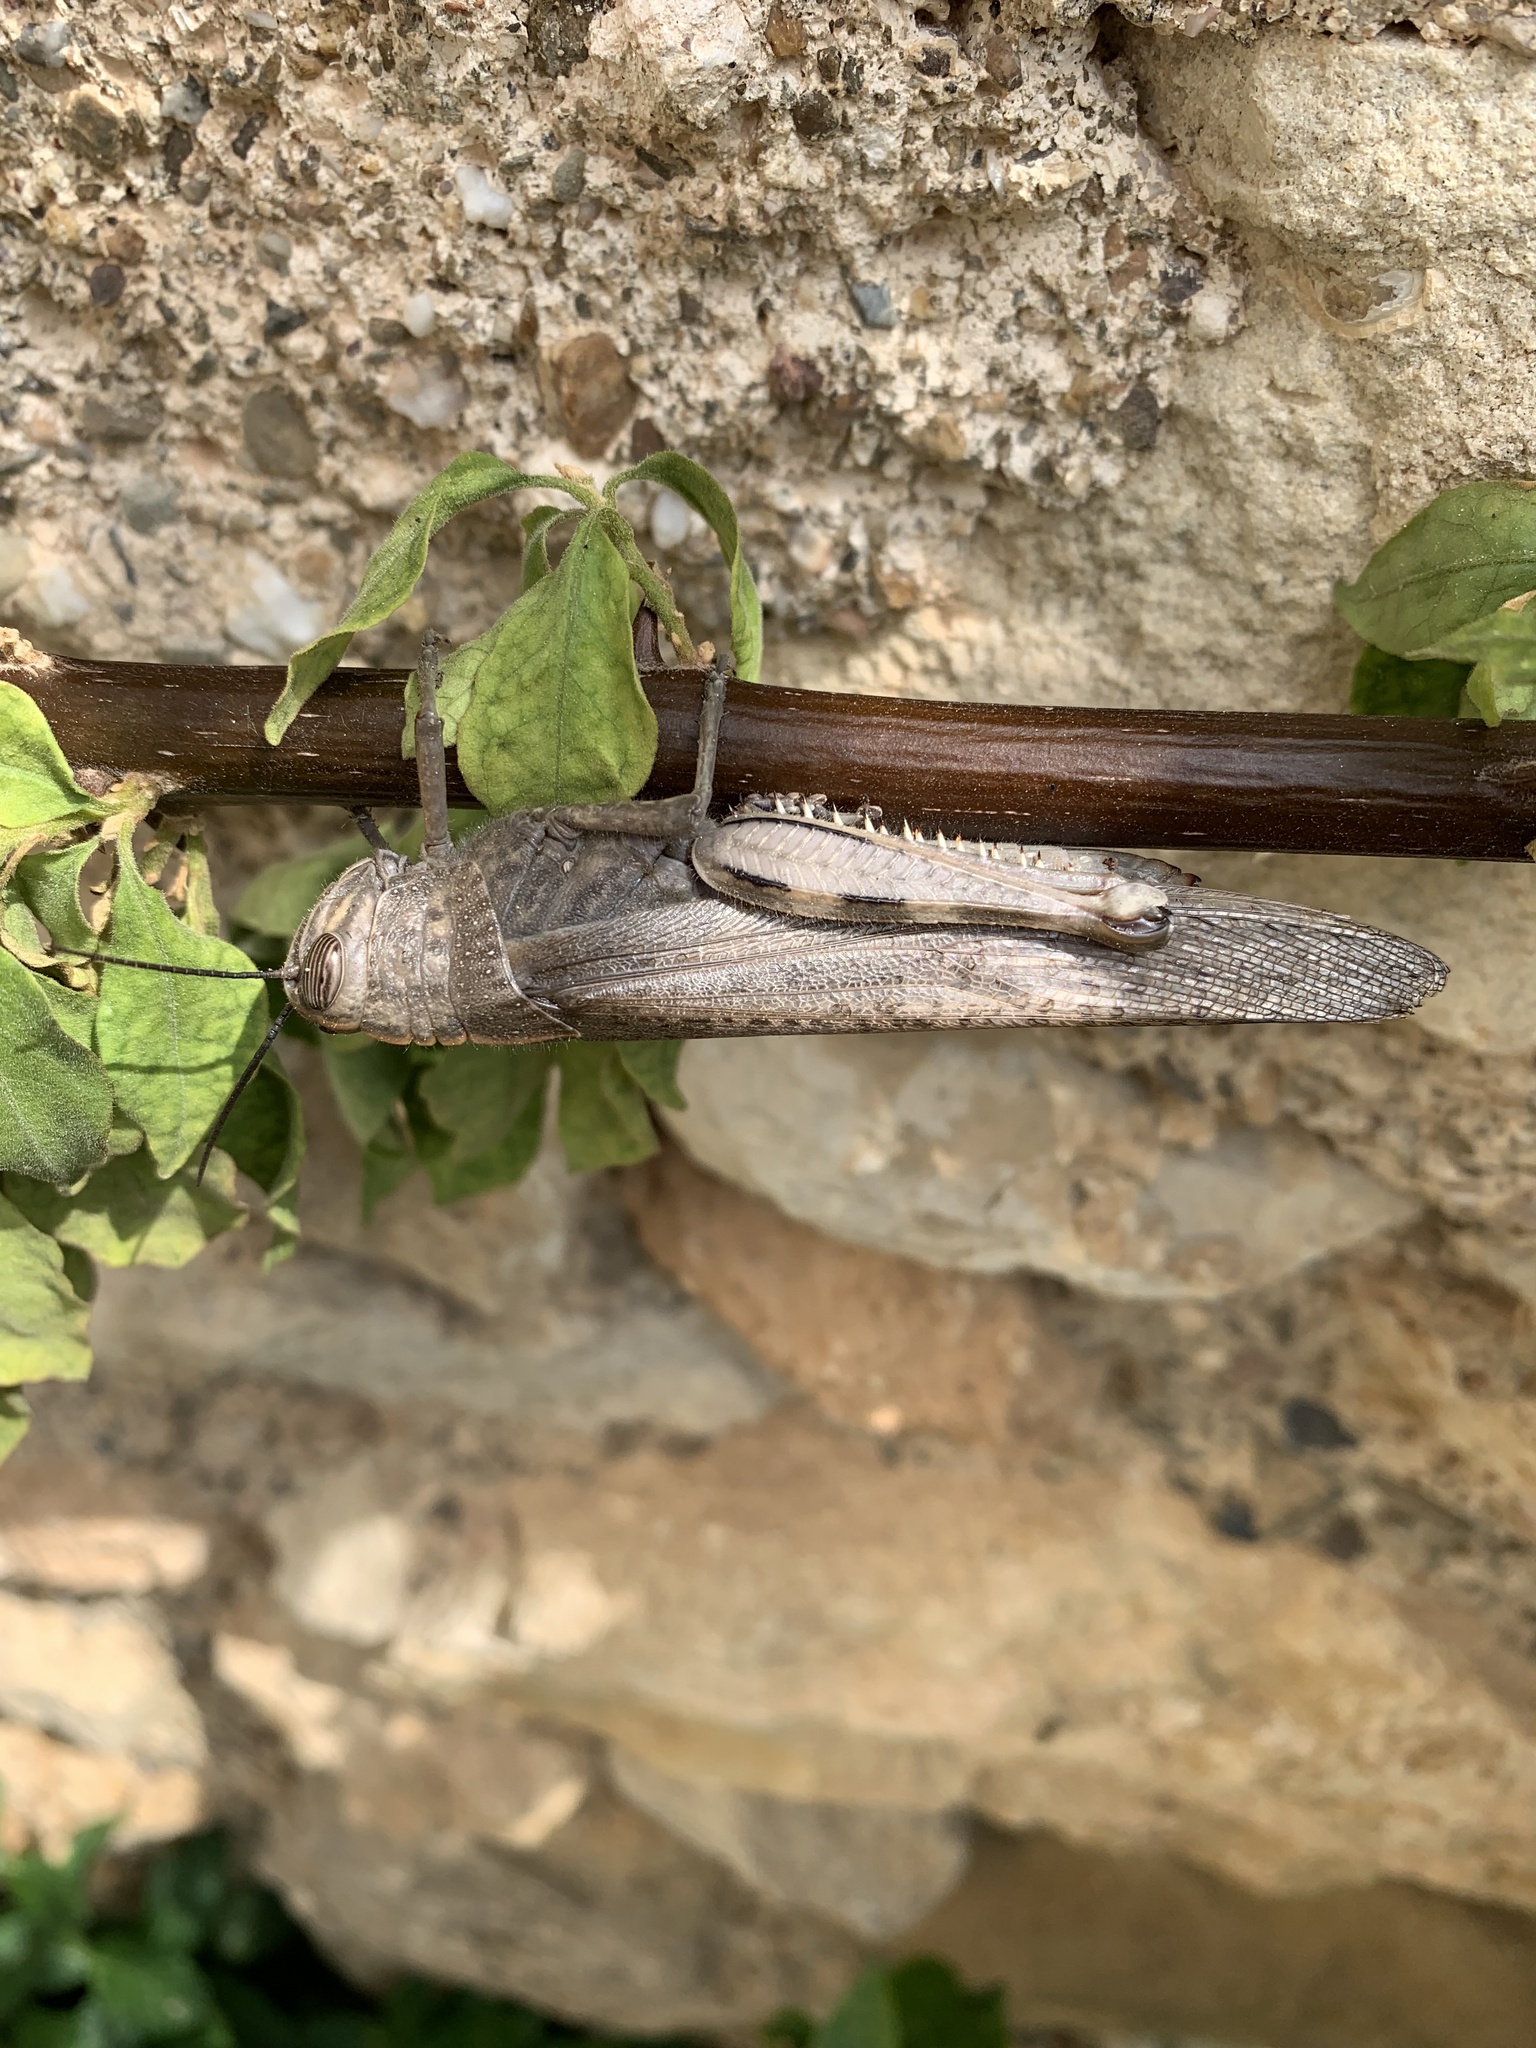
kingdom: Animalia
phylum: Arthropoda
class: Insecta
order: Orthoptera
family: Acrididae
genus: Anacridium
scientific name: Anacridium aegyptium
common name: Egyptian grasshopper
